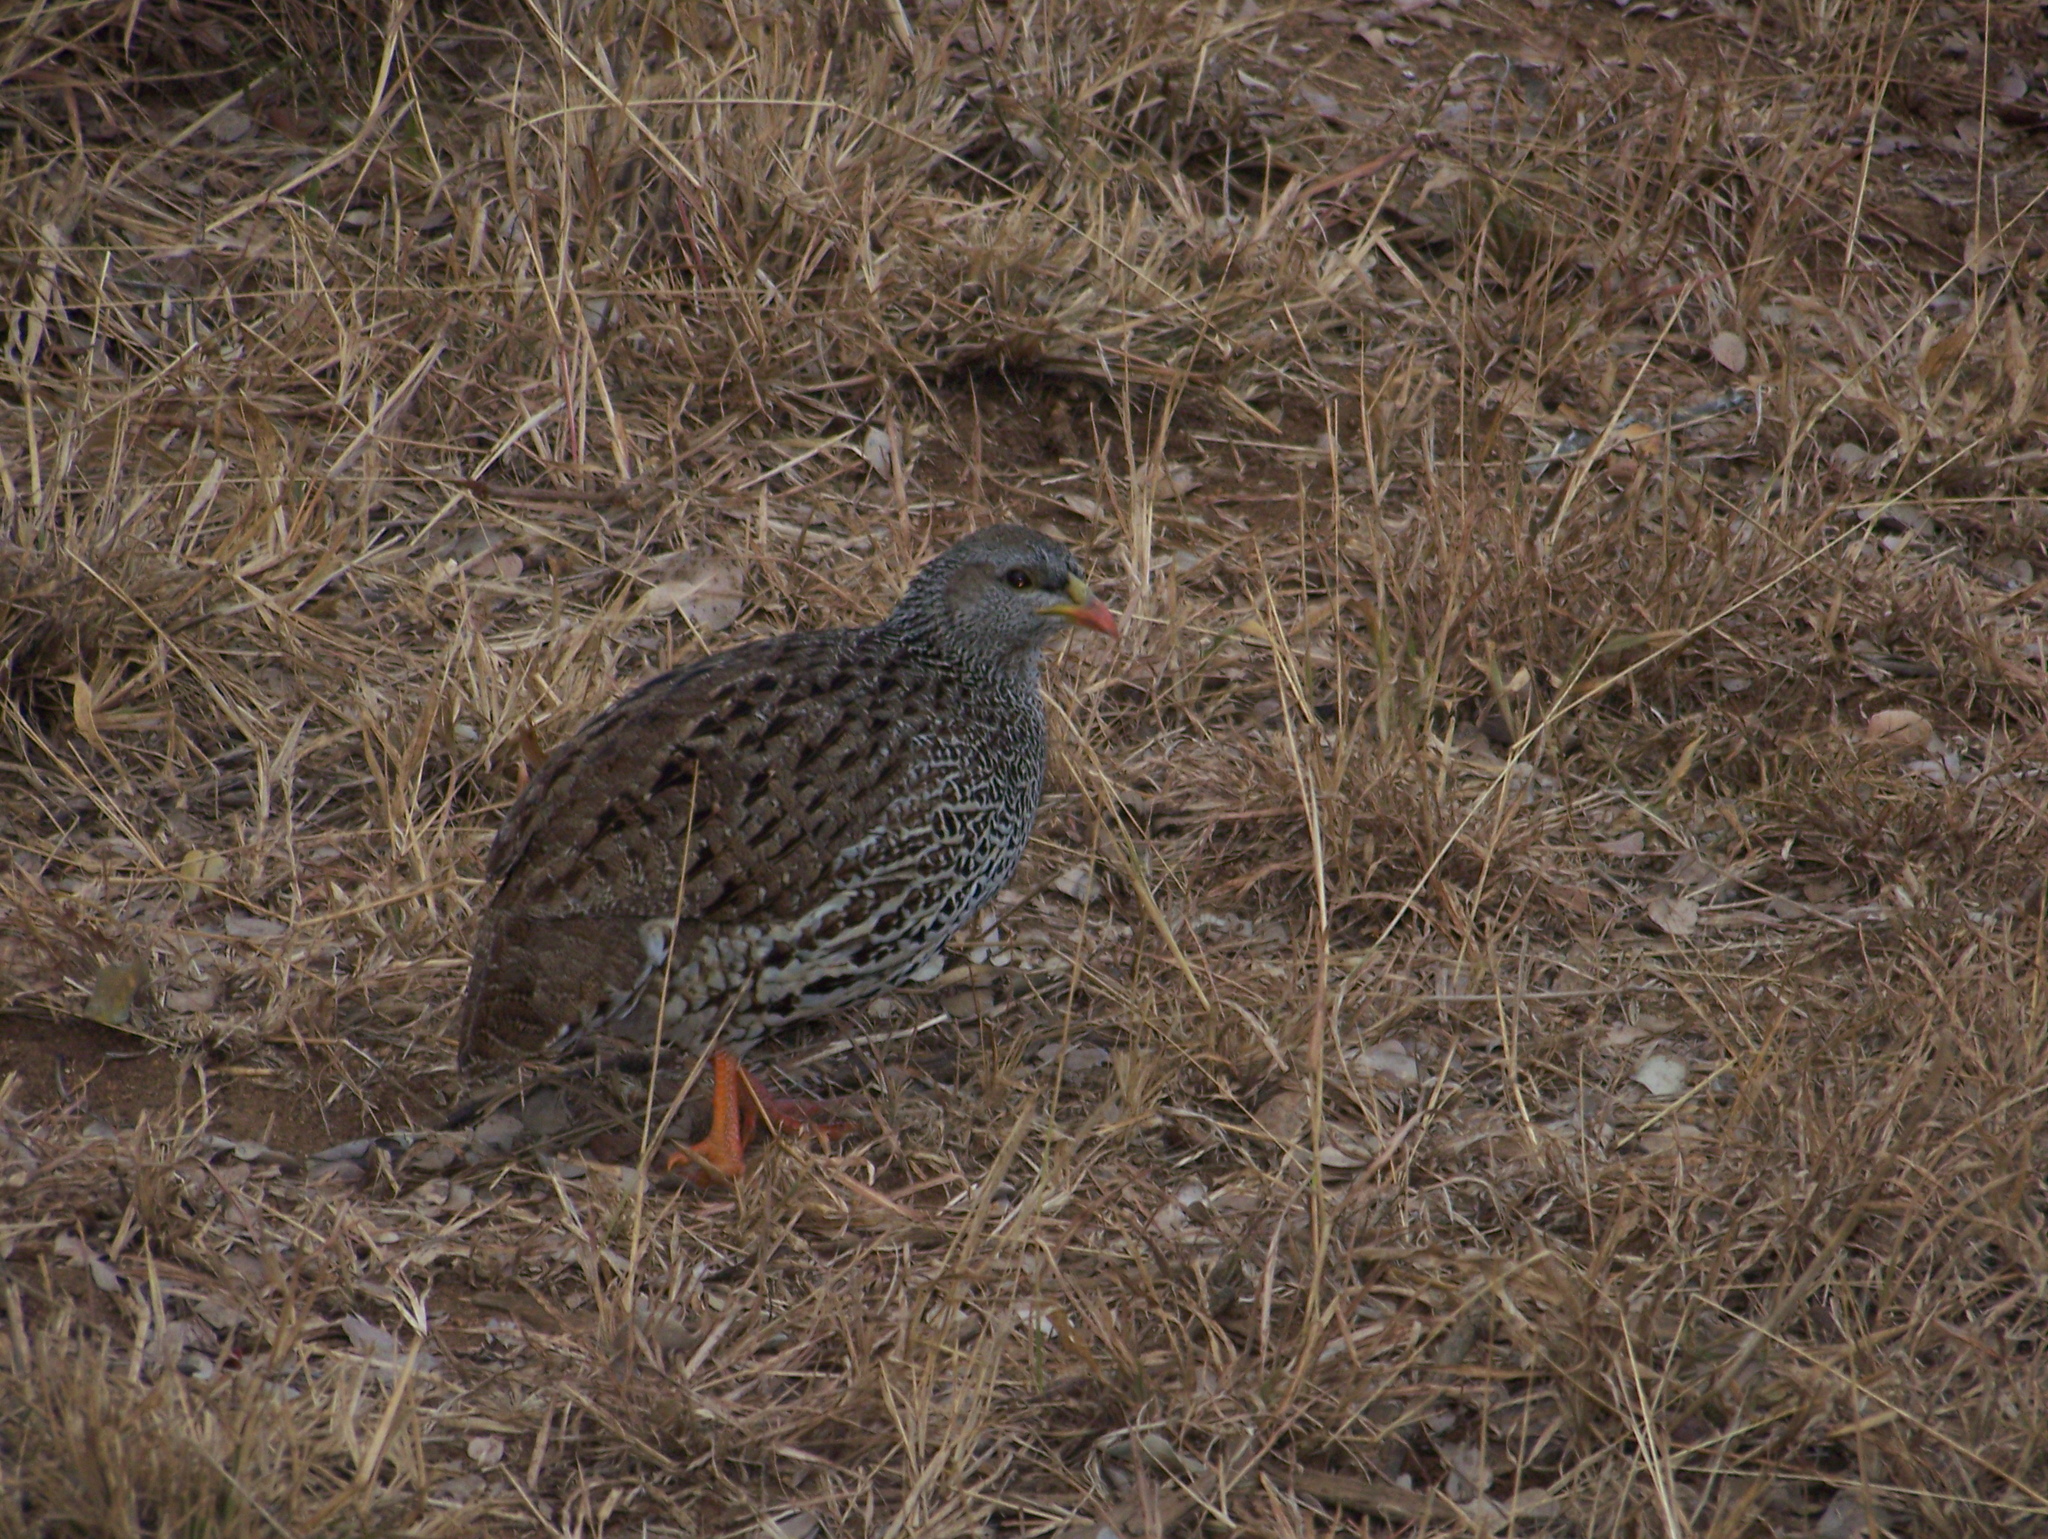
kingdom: Animalia
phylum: Chordata
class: Aves
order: Galliformes
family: Phasianidae
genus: Pternistis
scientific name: Pternistis natalensis
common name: Natal spurfowl
